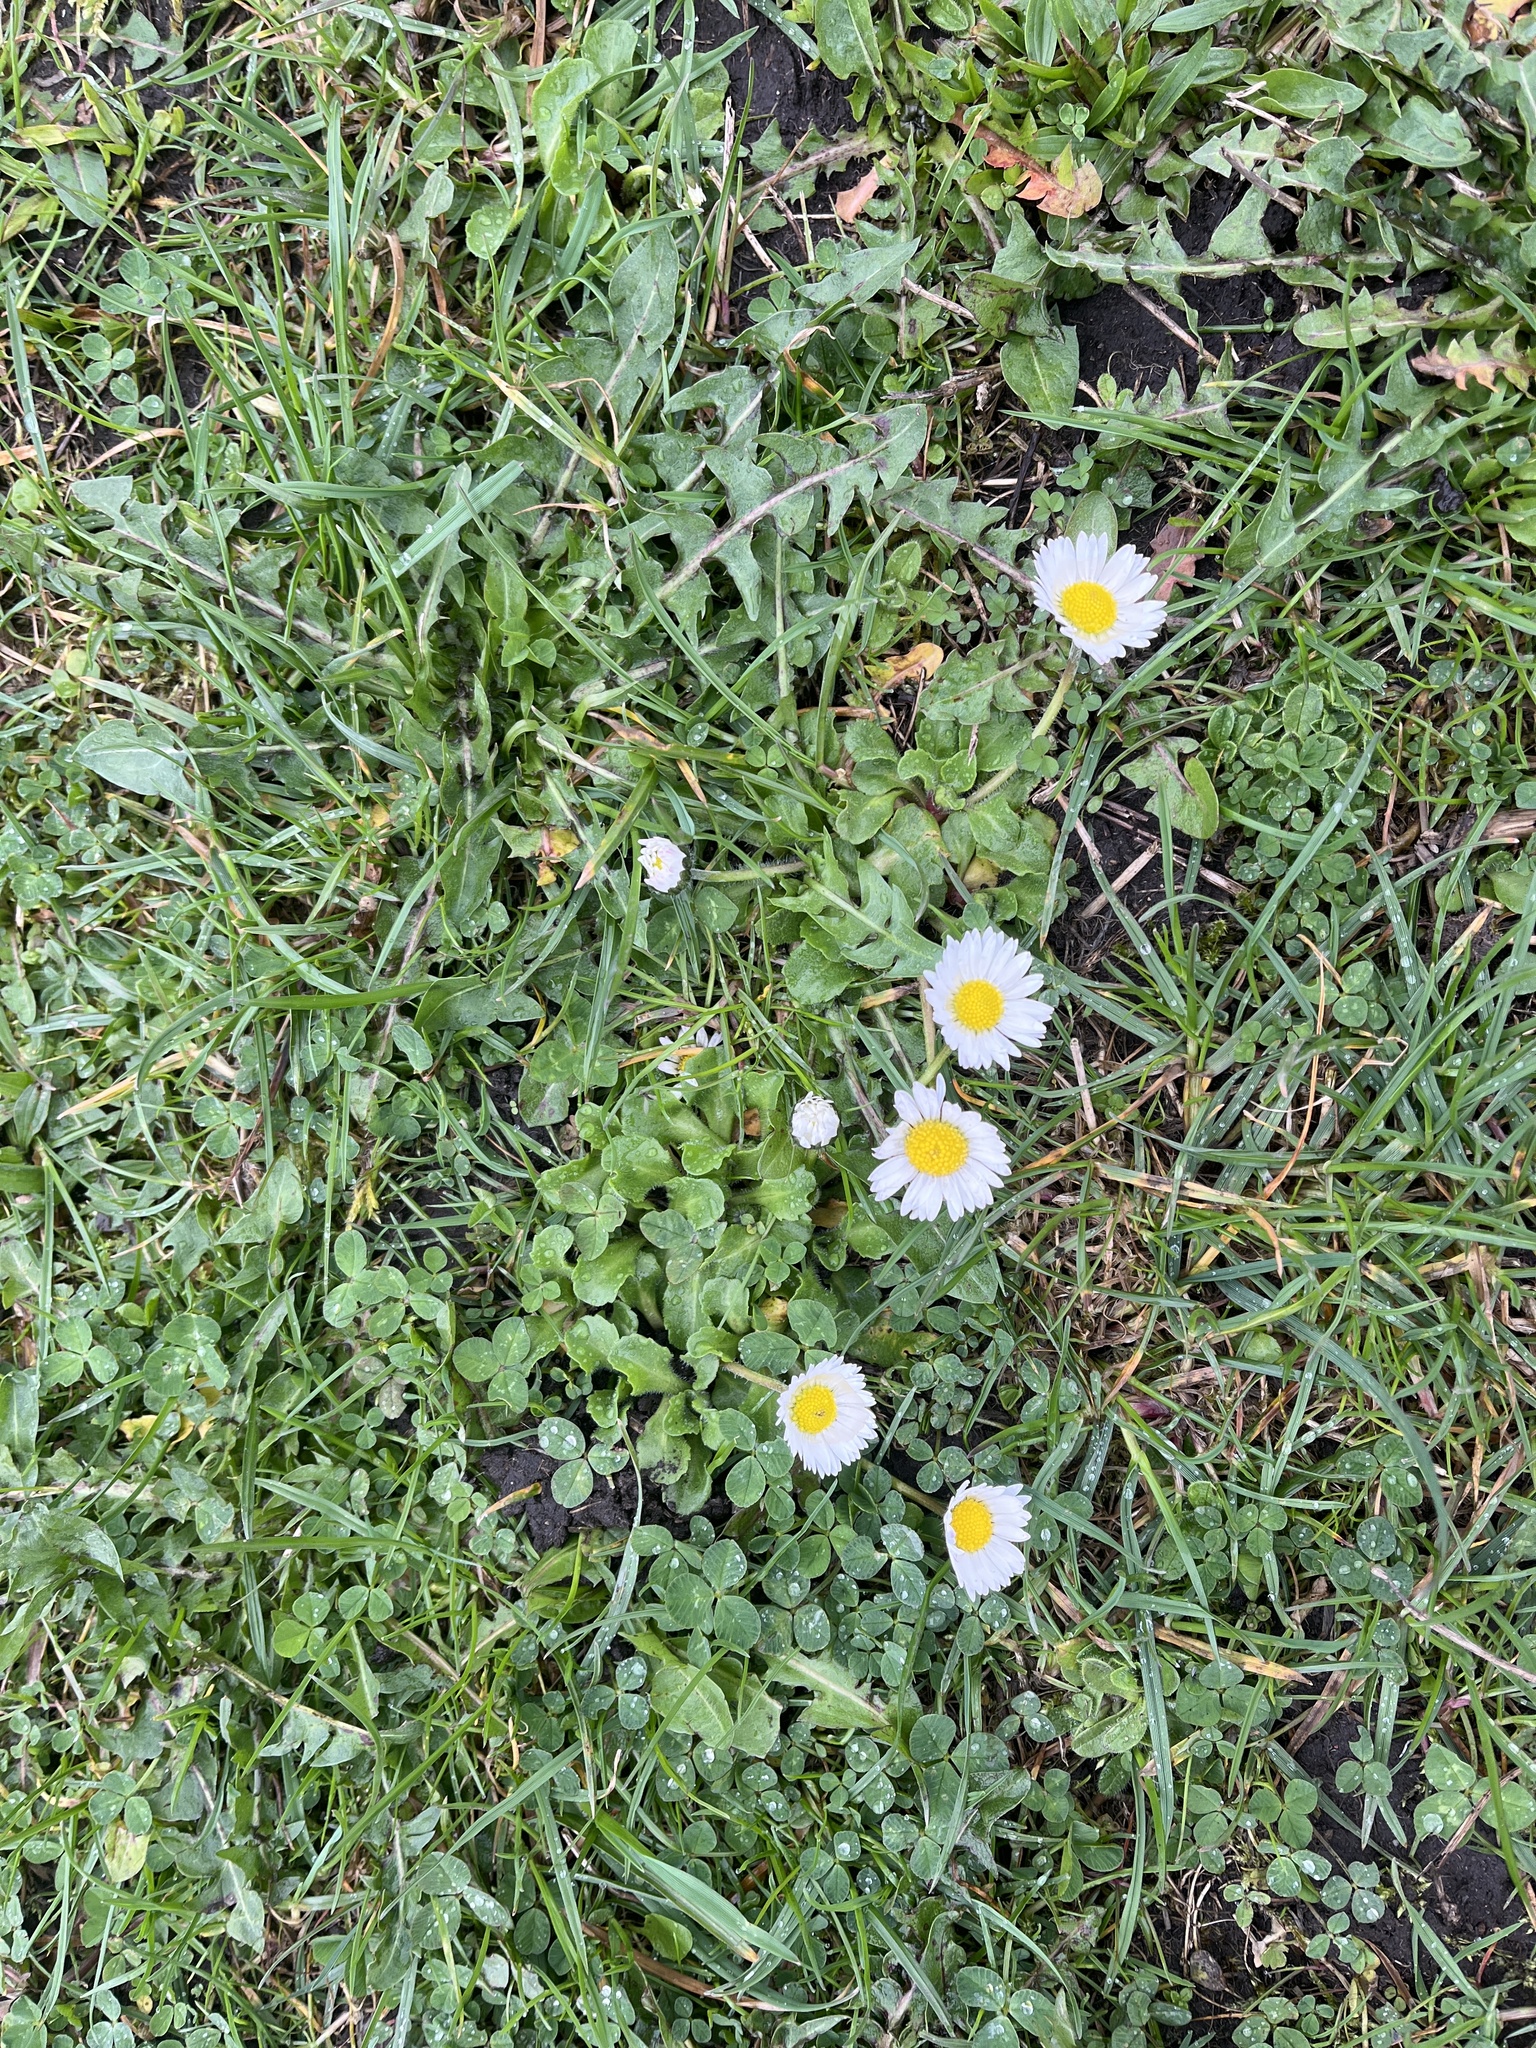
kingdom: Plantae
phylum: Tracheophyta
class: Magnoliopsida
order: Asterales
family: Asteraceae
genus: Bellis
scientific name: Bellis perennis
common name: Lawndaisy
